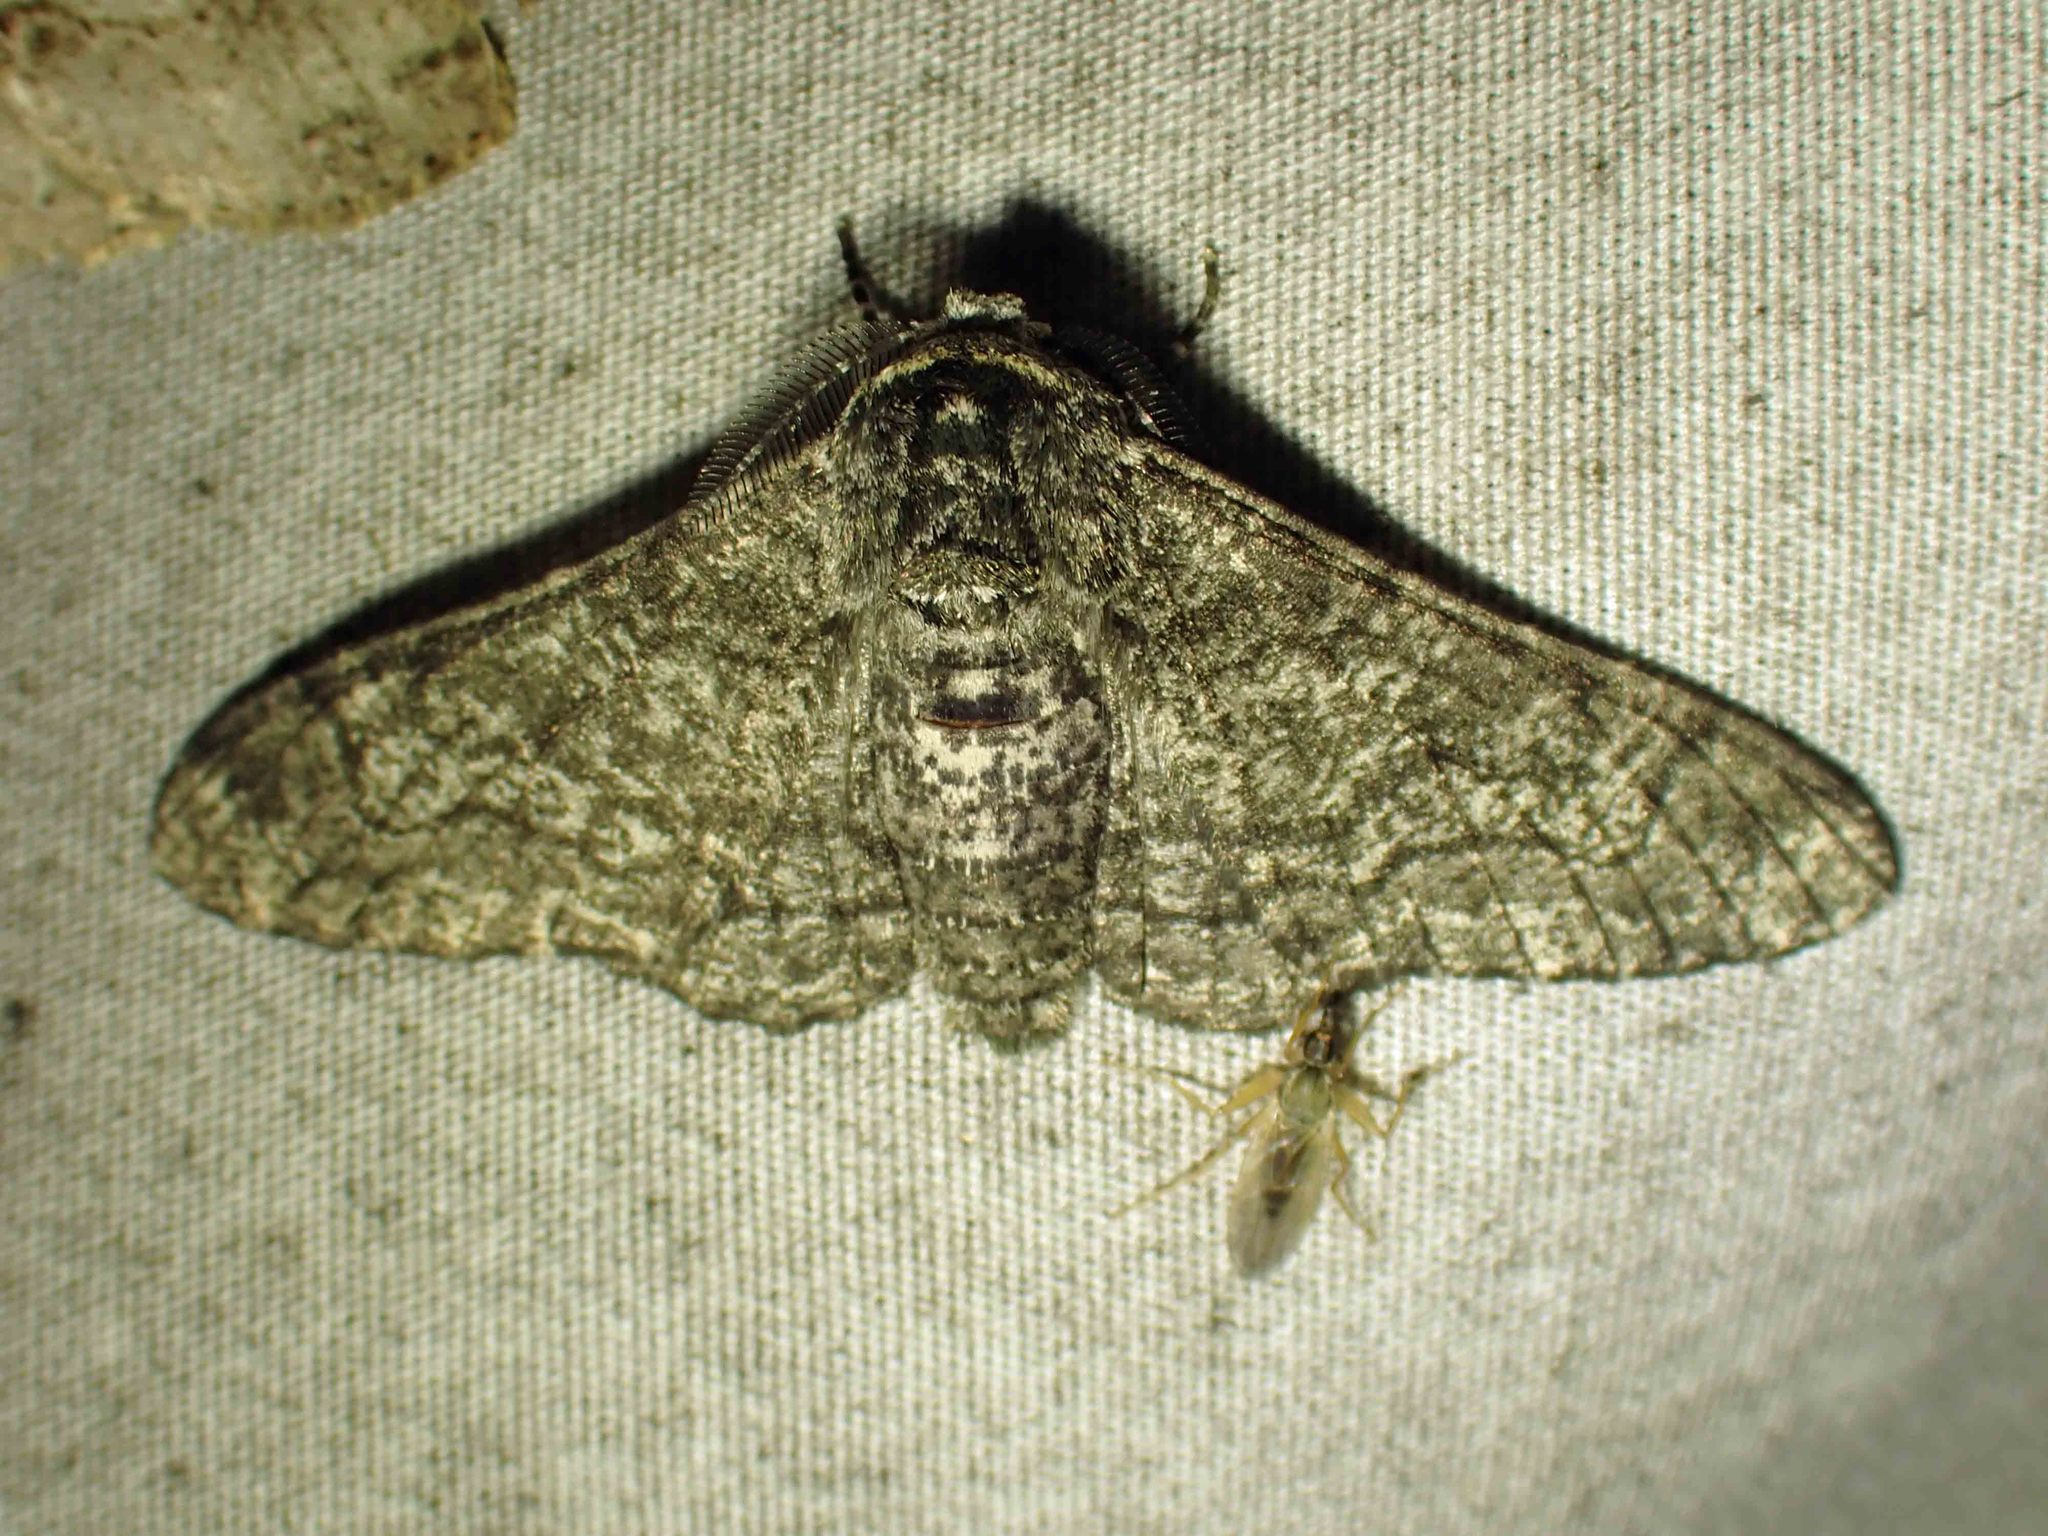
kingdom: Animalia
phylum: Arthropoda
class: Insecta
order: Lepidoptera
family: Geometridae
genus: Biston
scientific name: Biston betularia
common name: Peppered moth
